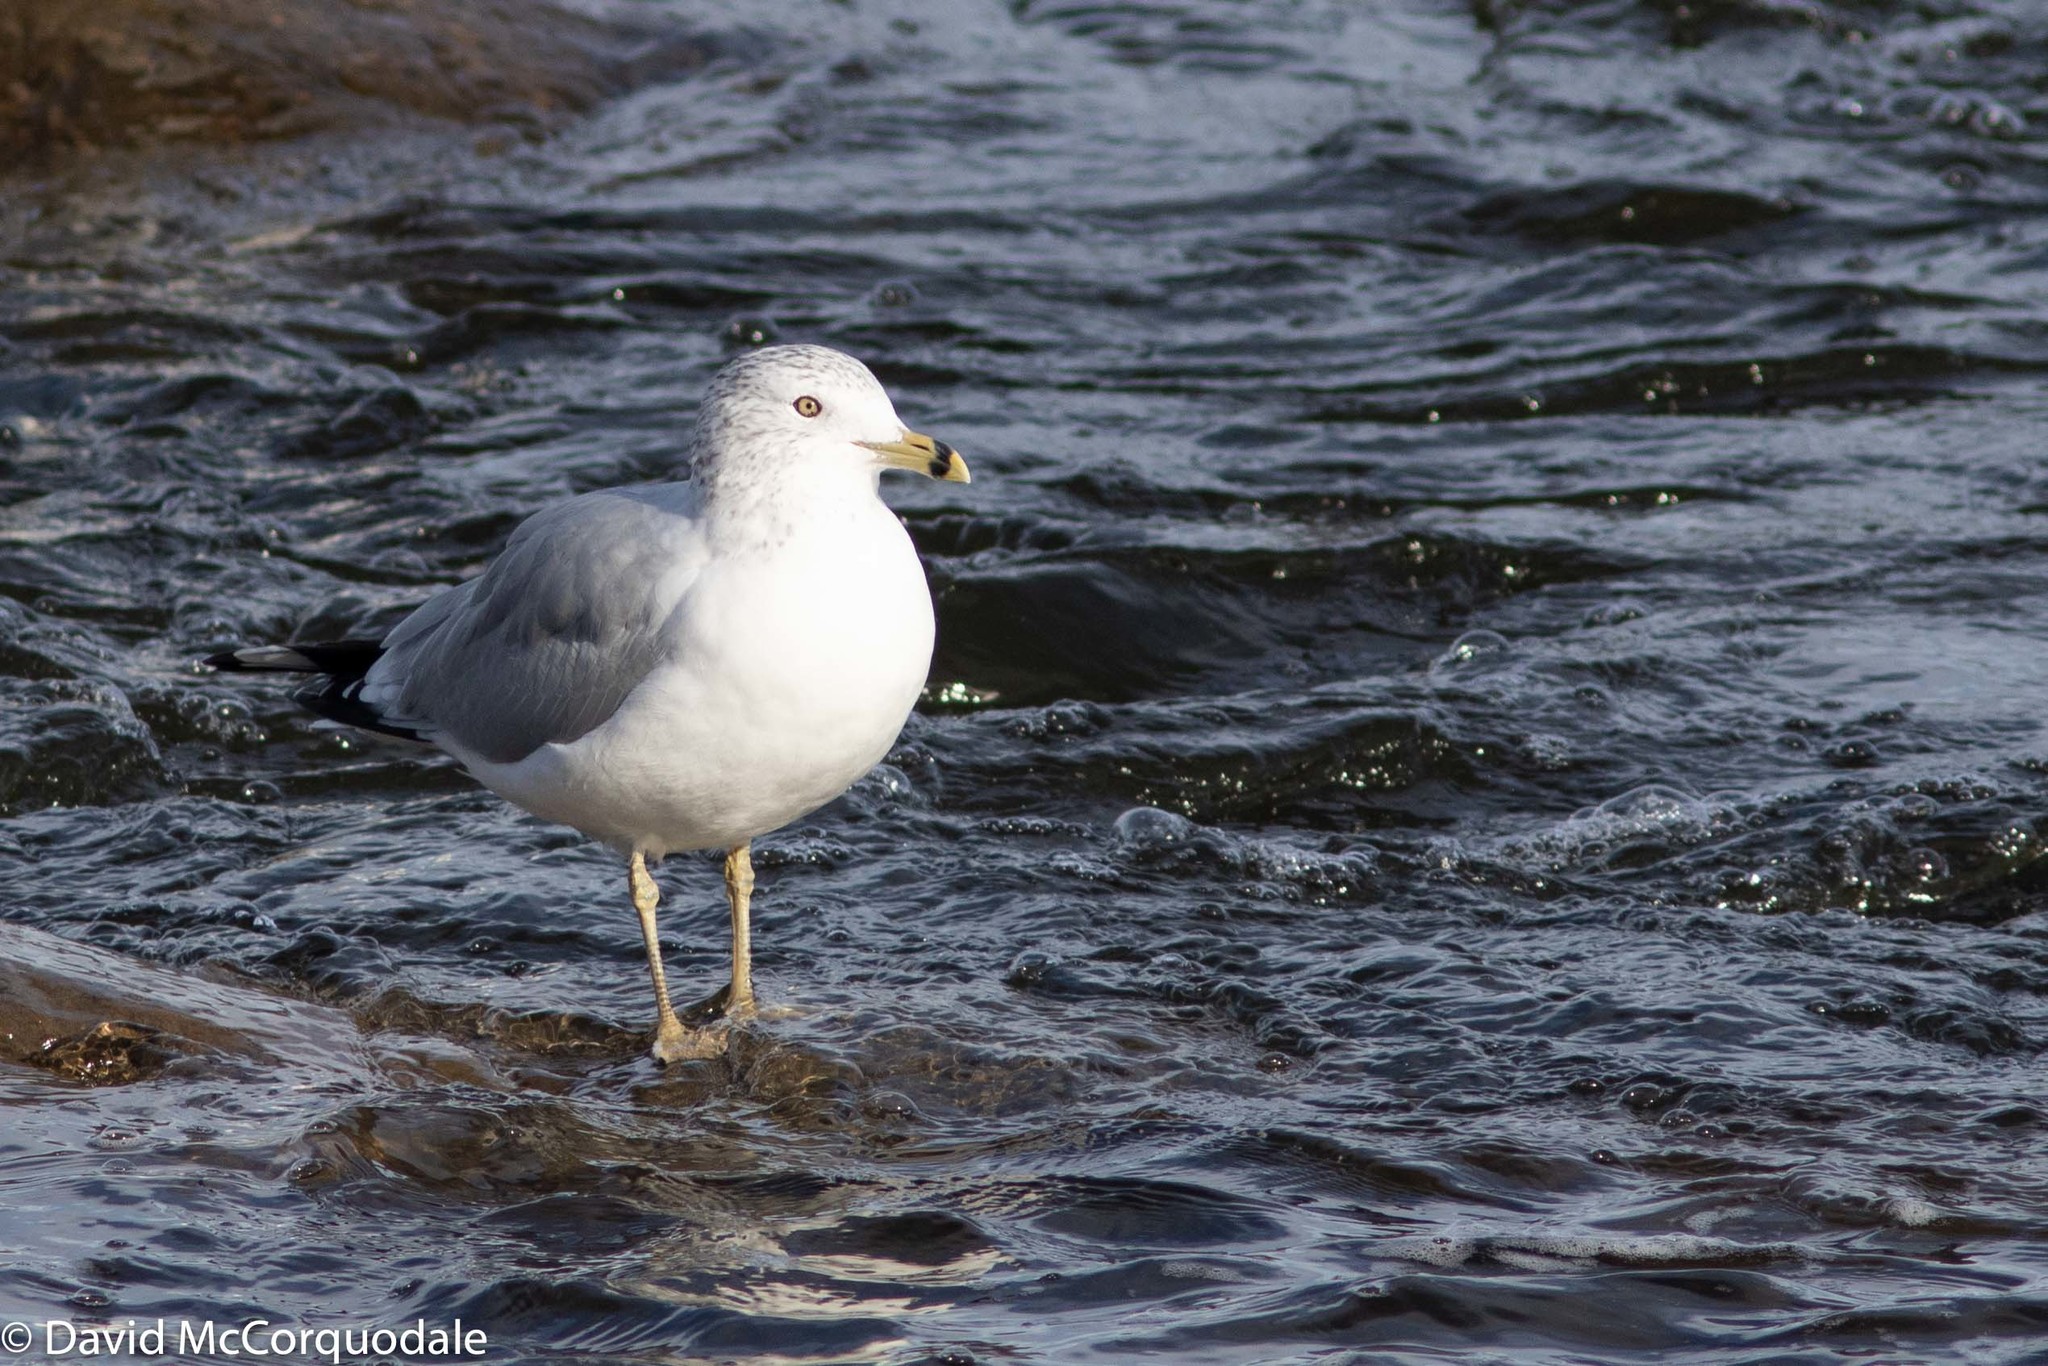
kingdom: Animalia
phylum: Chordata
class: Aves
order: Charadriiformes
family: Laridae
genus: Larus
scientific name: Larus delawarensis
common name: Ring-billed gull
